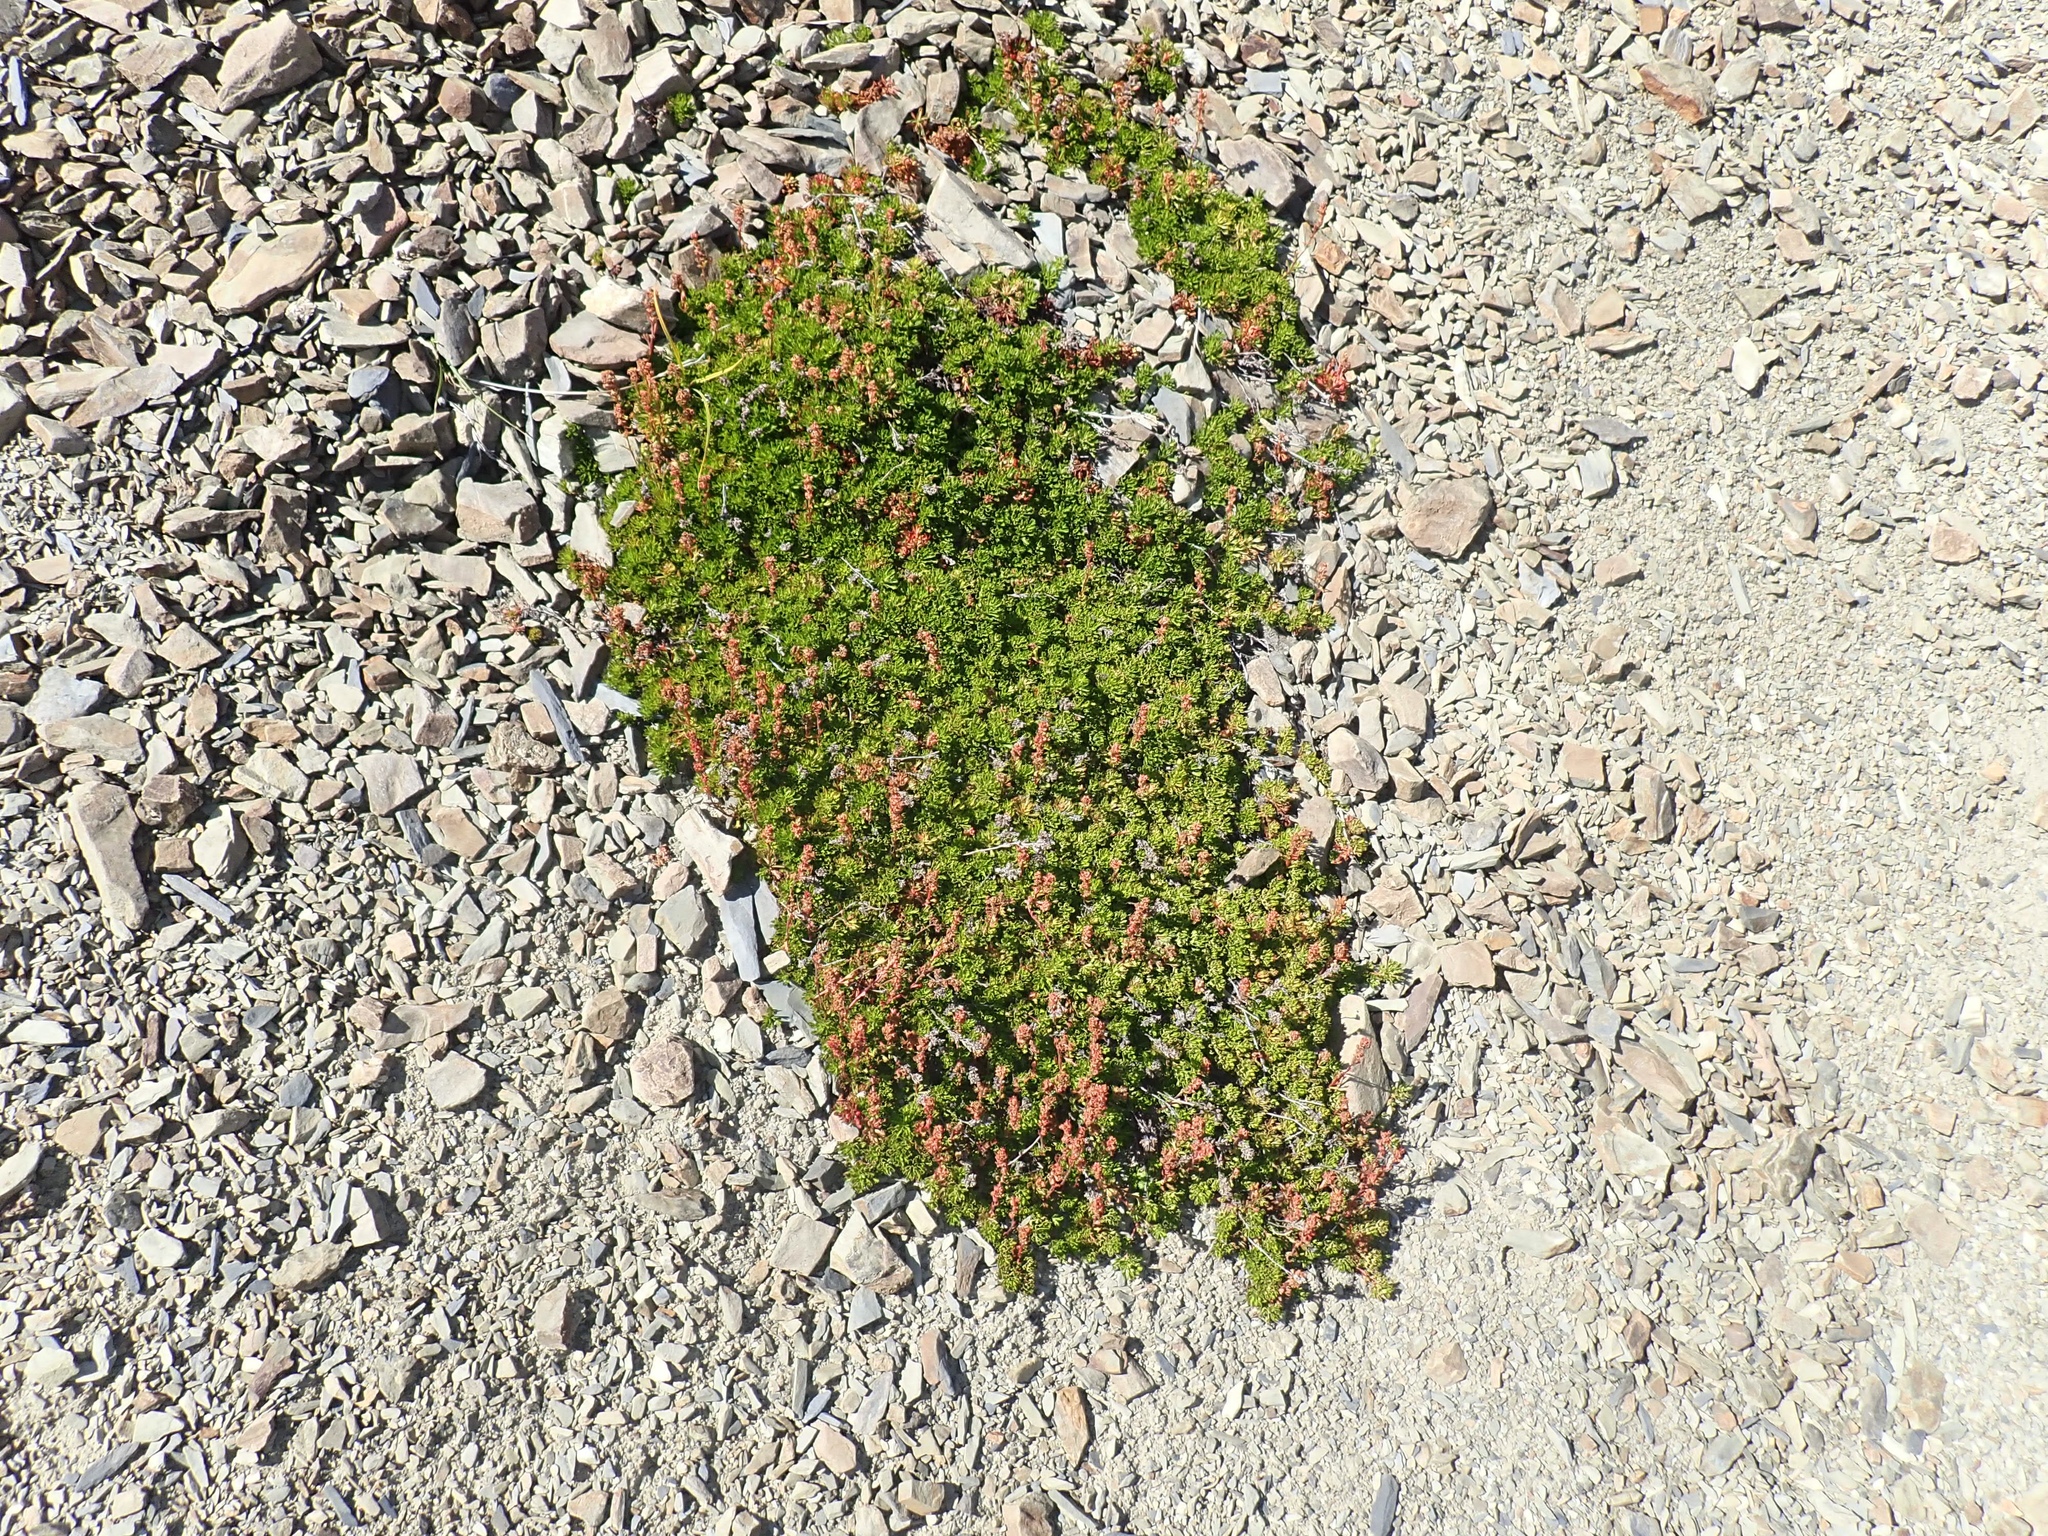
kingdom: Plantae
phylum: Tracheophyta
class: Magnoliopsida
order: Rosales
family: Rosaceae
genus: Luetkea
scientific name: Luetkea pectinata
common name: Partridgefoot
